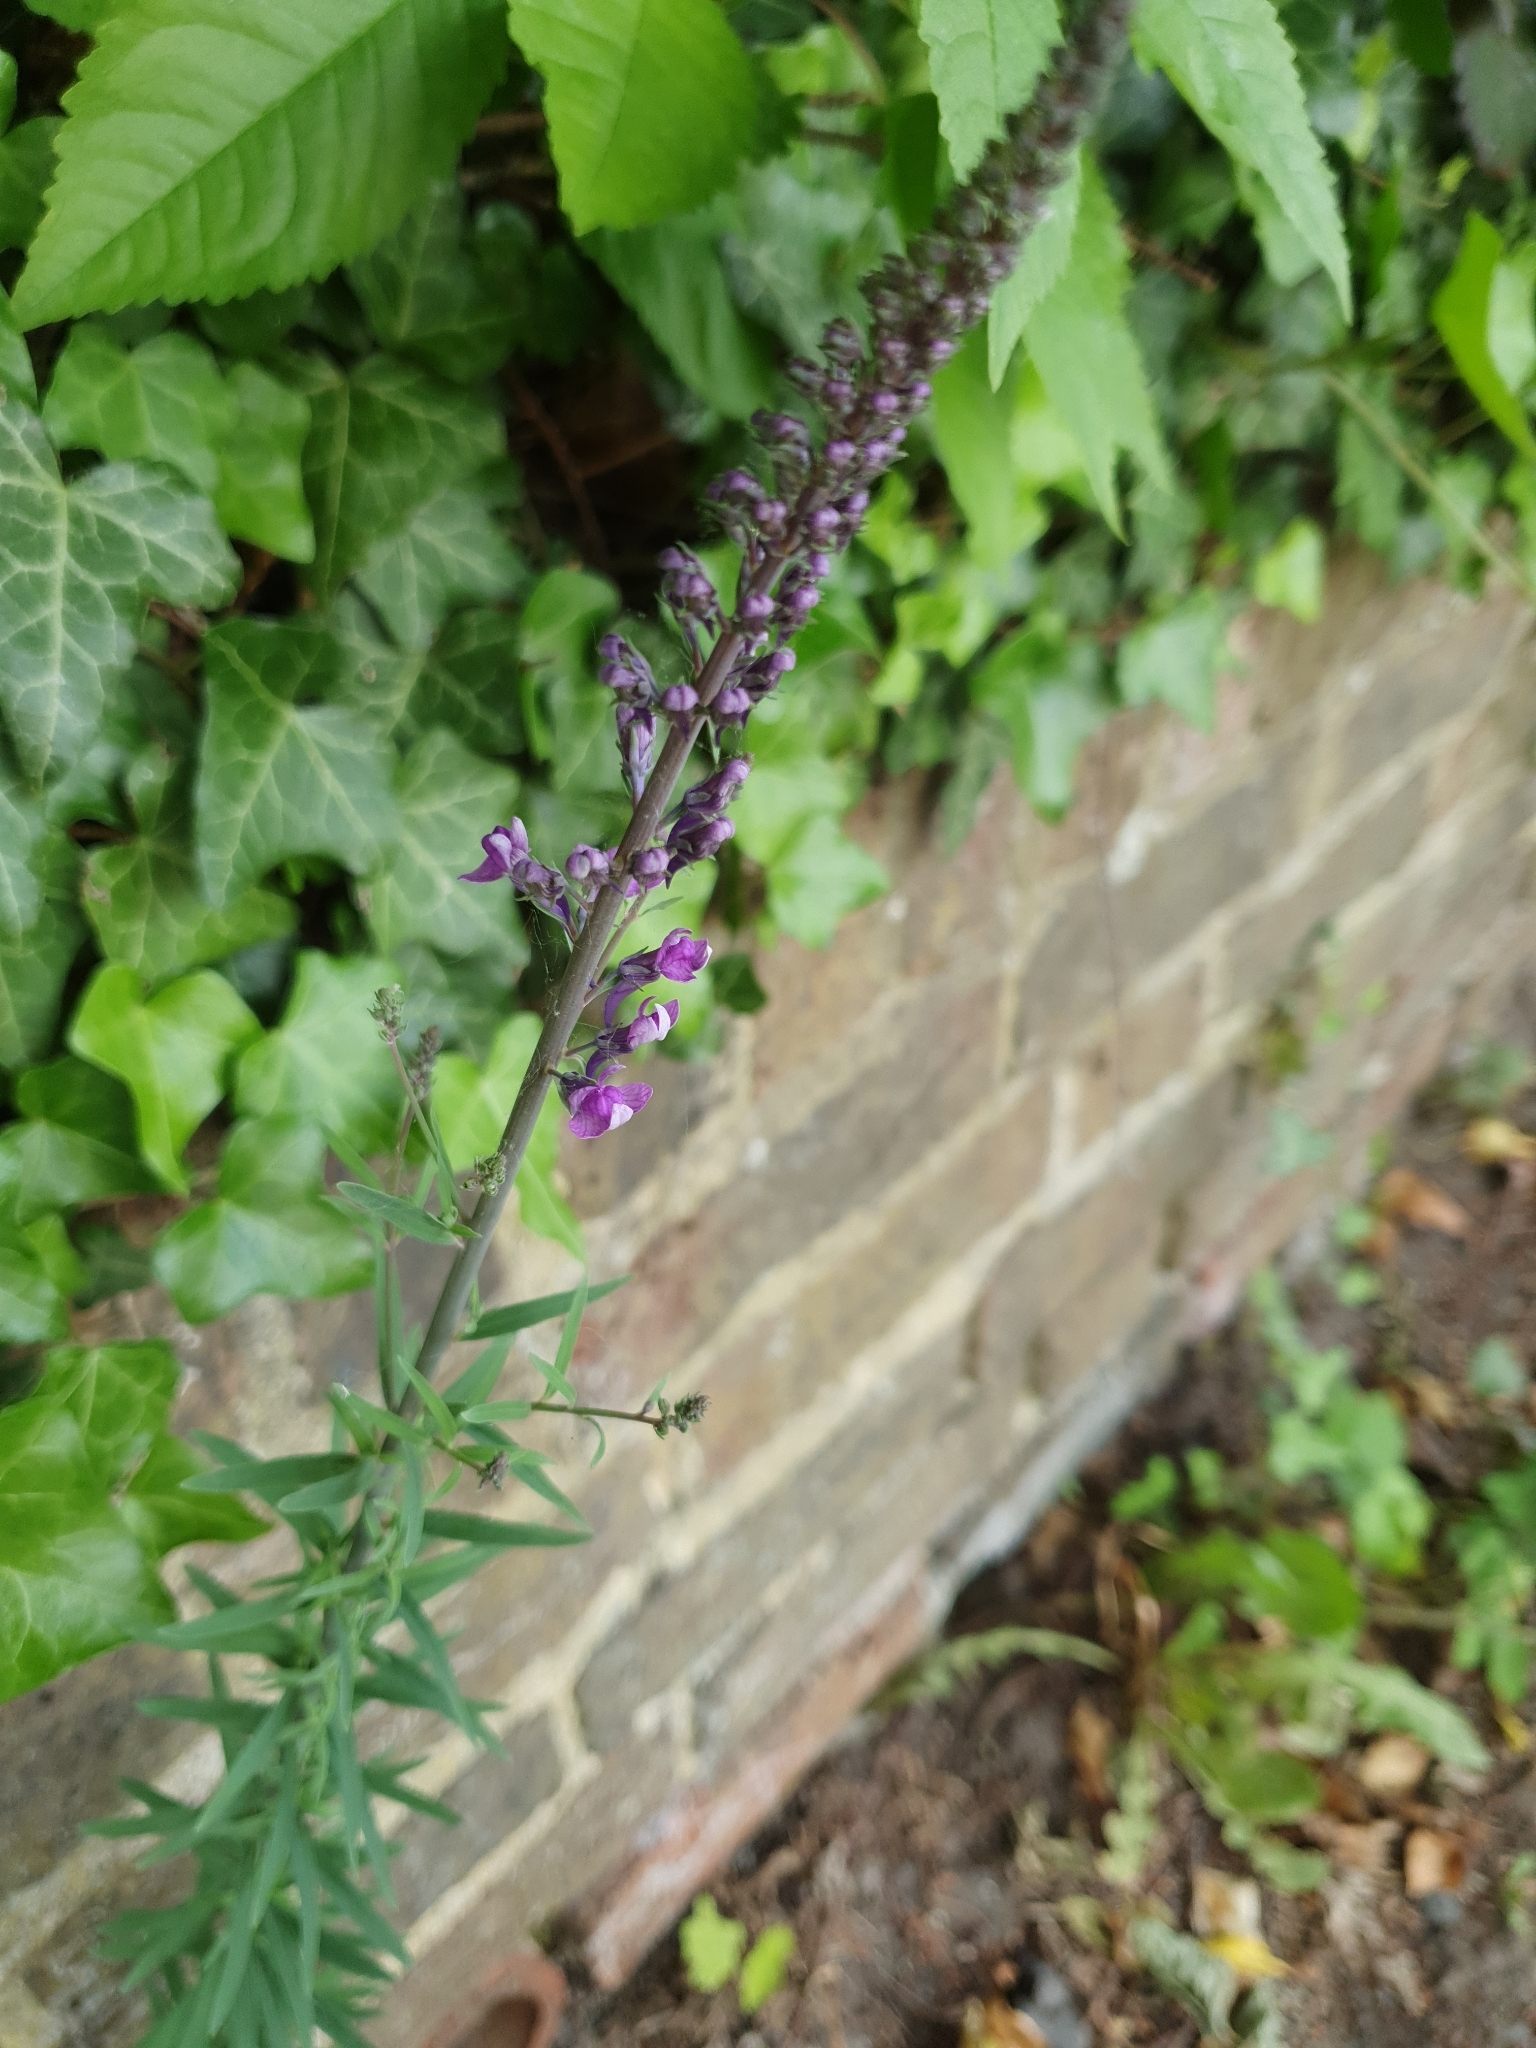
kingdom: Plantae
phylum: Tracheophyta
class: Magnoliopsida
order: Lamiales
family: Plantaginaceae
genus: Linaria
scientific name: Linaria purpurea
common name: Purple toadflax
